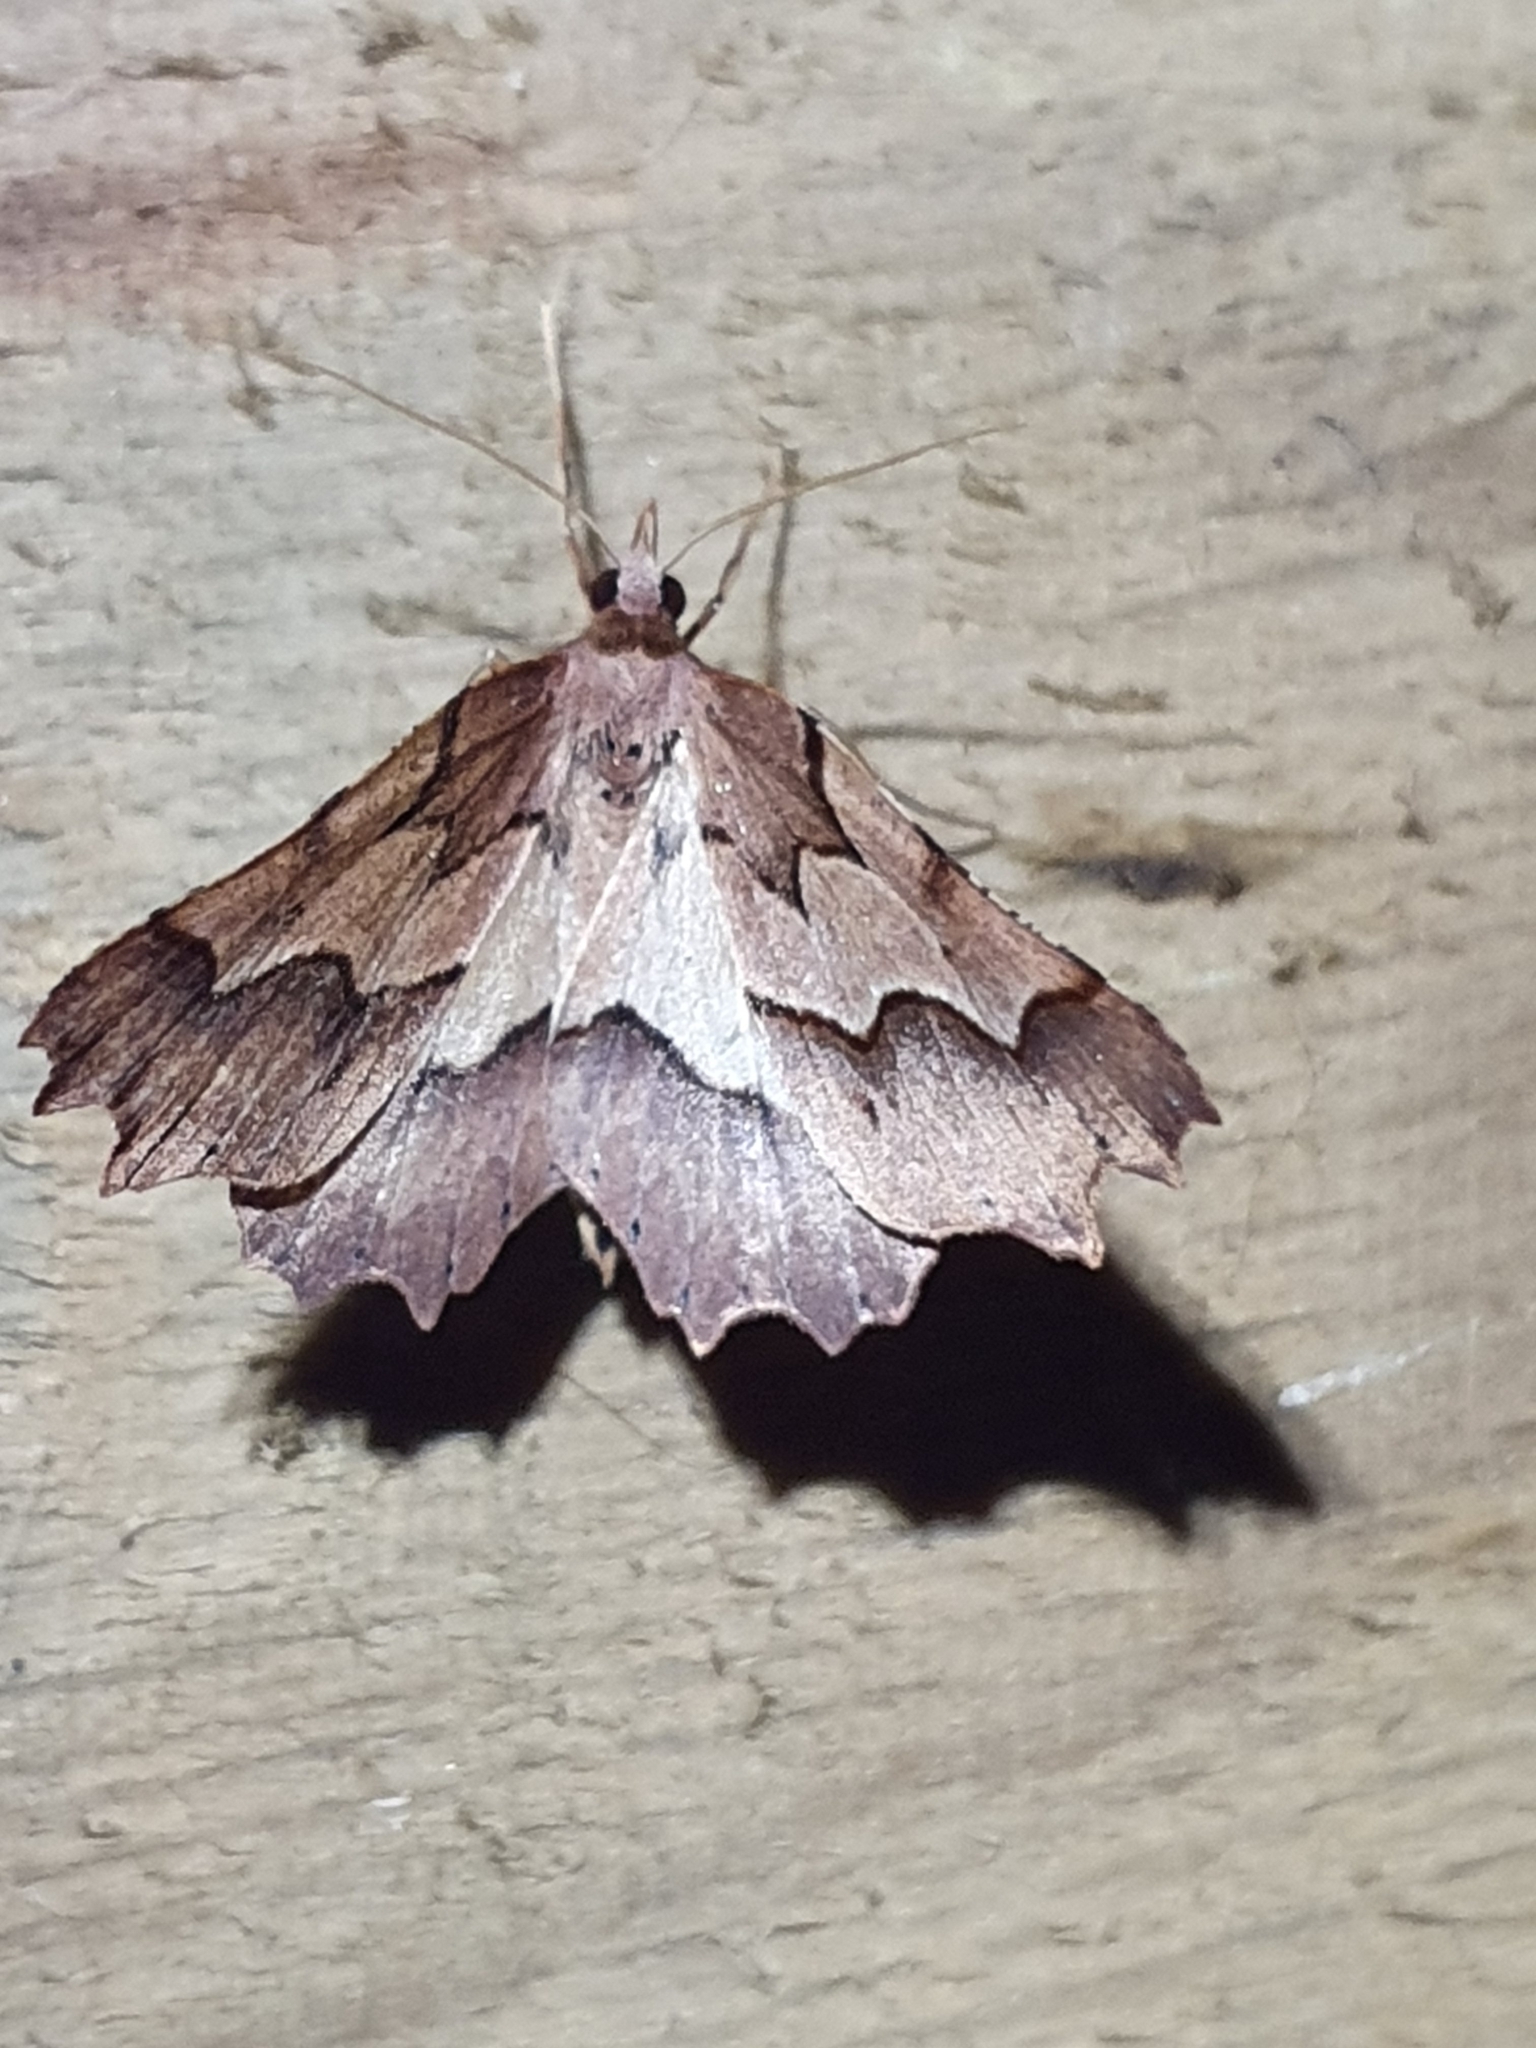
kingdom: Animalia
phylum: Arthropoda
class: Insecta
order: Lepidoptera
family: Geometridae
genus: Ischalis
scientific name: Ischalis fortinata
